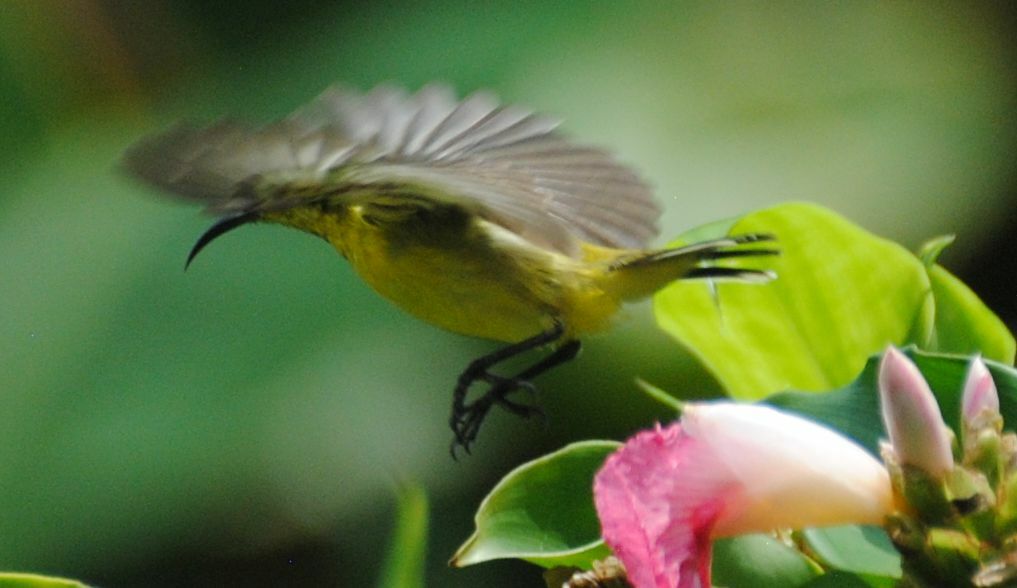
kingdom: Animalia
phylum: Chordata
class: Aves
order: Passeriformes
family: Nectariniidae
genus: Cinnyris
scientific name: Cinnyris
